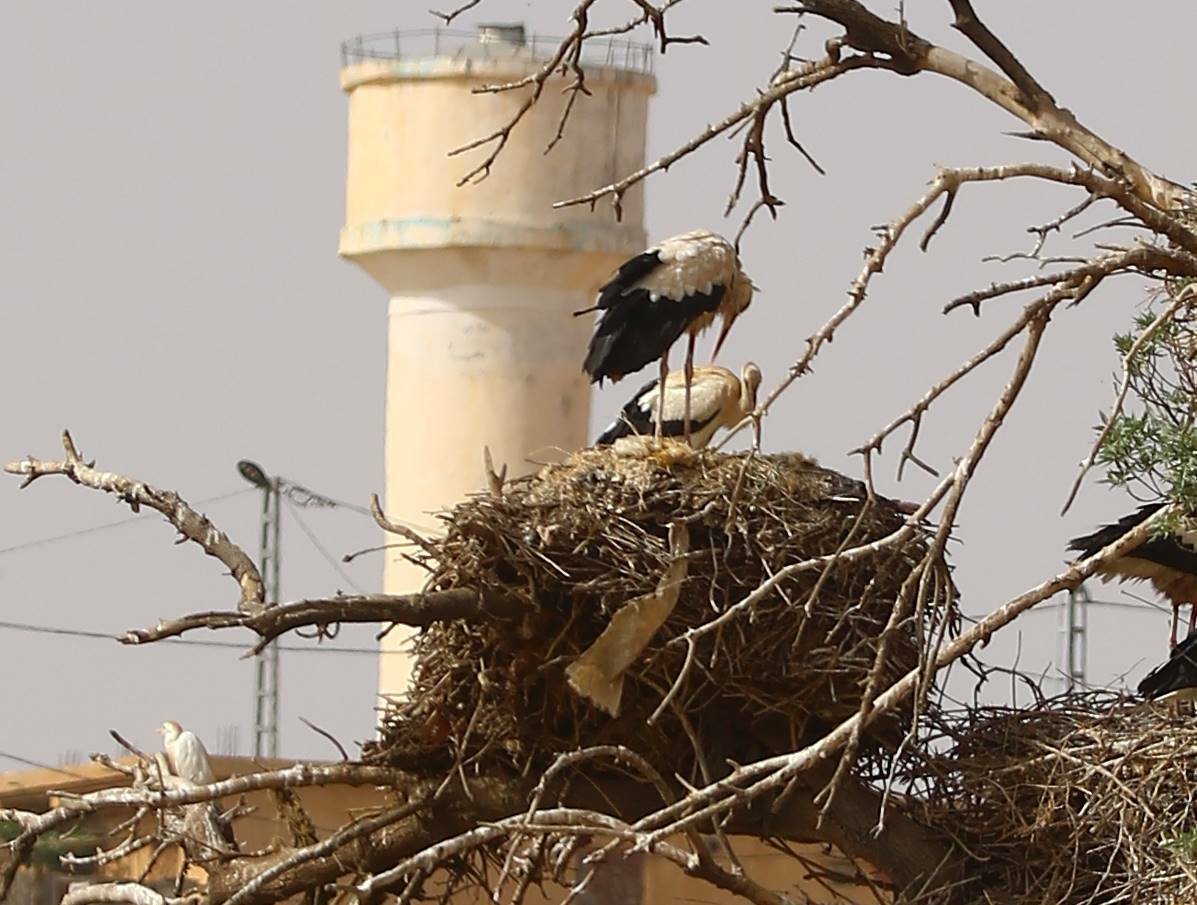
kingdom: Animalia
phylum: Chordata
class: Aves
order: Ciconiiformes
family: Ciconiidae
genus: Ciconia
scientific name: Ciconia ciconia
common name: White stork
